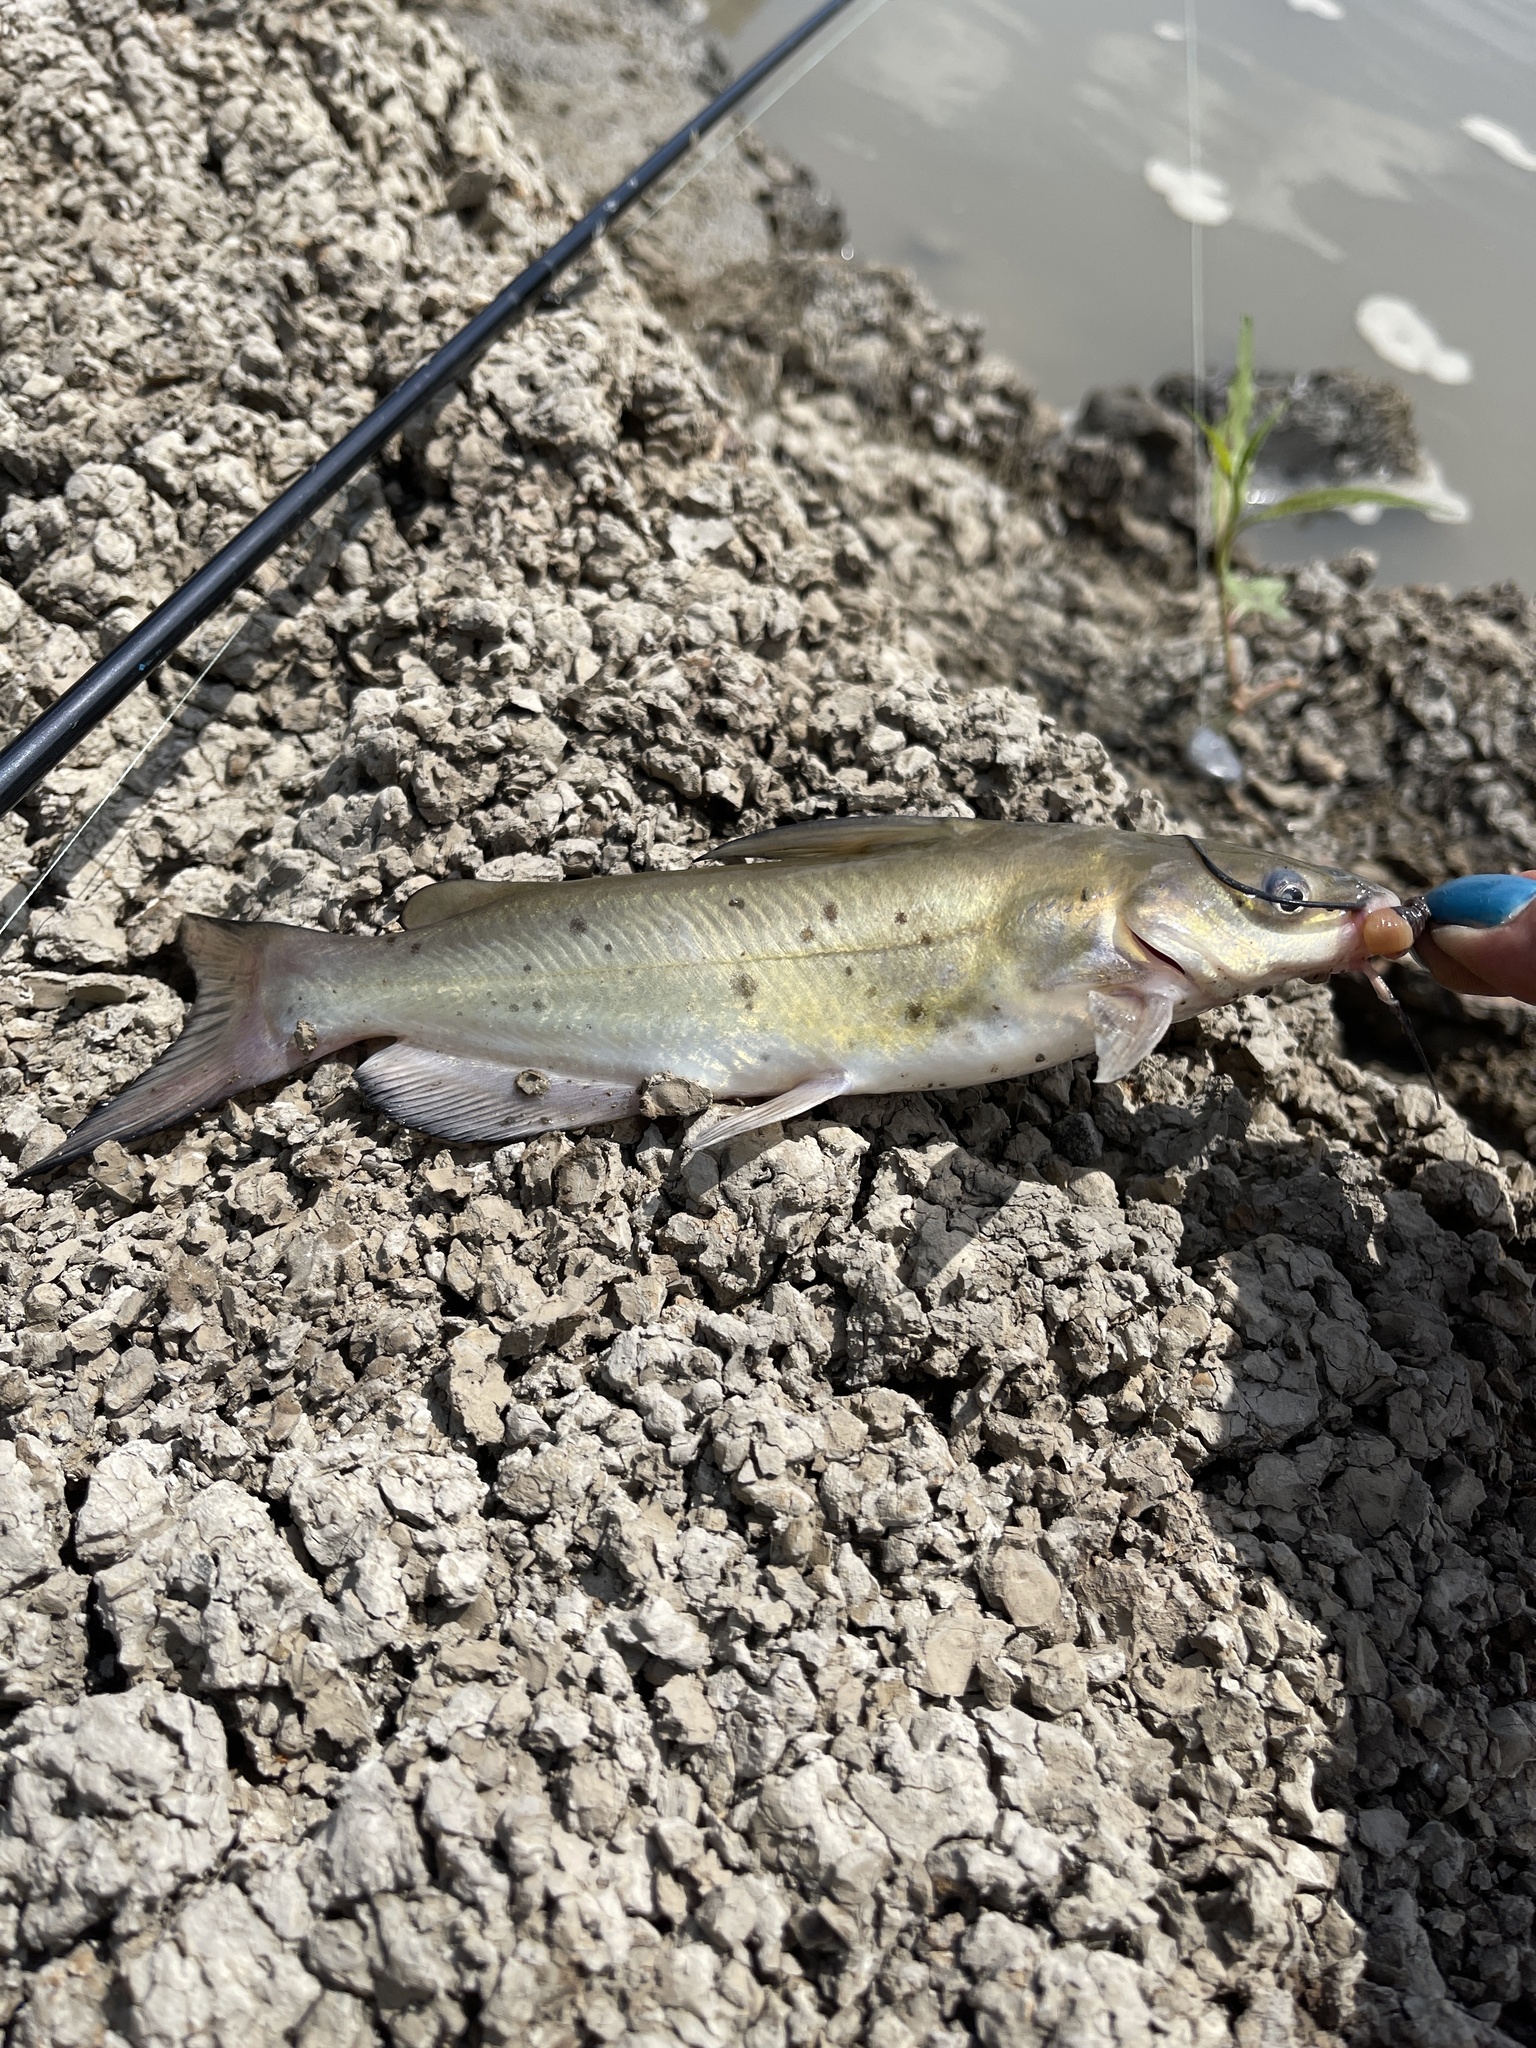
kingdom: Animalia
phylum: Chordata
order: Siluriformes
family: Ictaluridae
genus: Ictalurus
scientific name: Ictalurus punctatus
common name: Channel catfish
